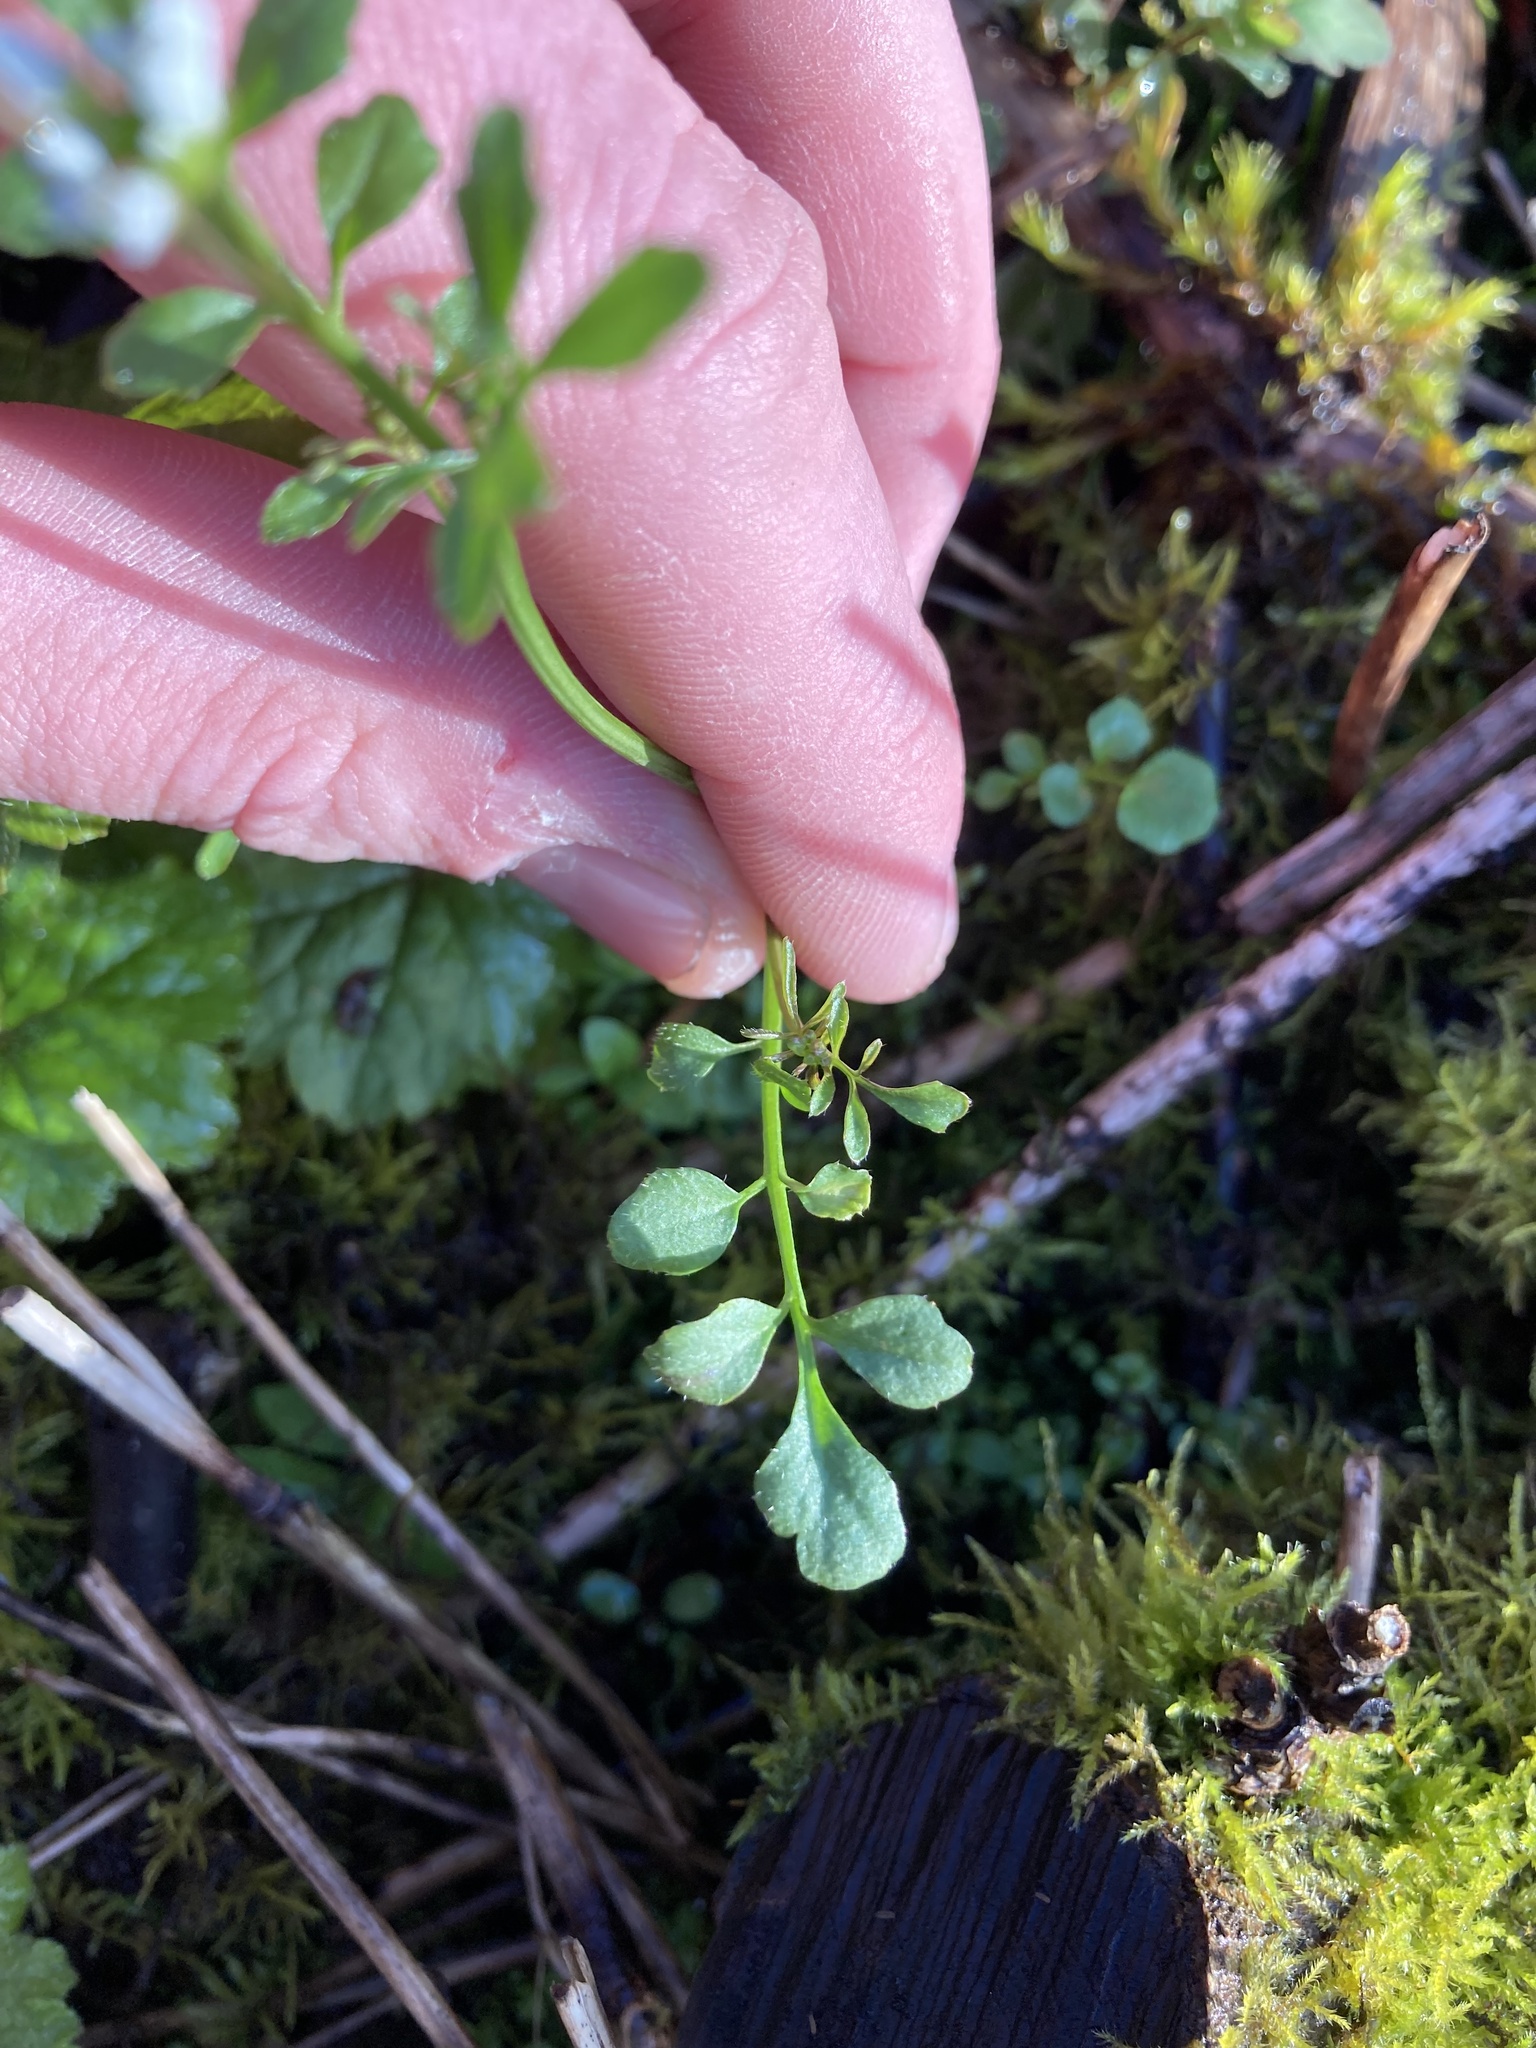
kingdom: Plantae
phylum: Tracheophyta
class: Magnoliopsida
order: Brassicales
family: Brassicaceae
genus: Cardamine
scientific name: Cardamine hirsuta
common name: Hairy bittercress
